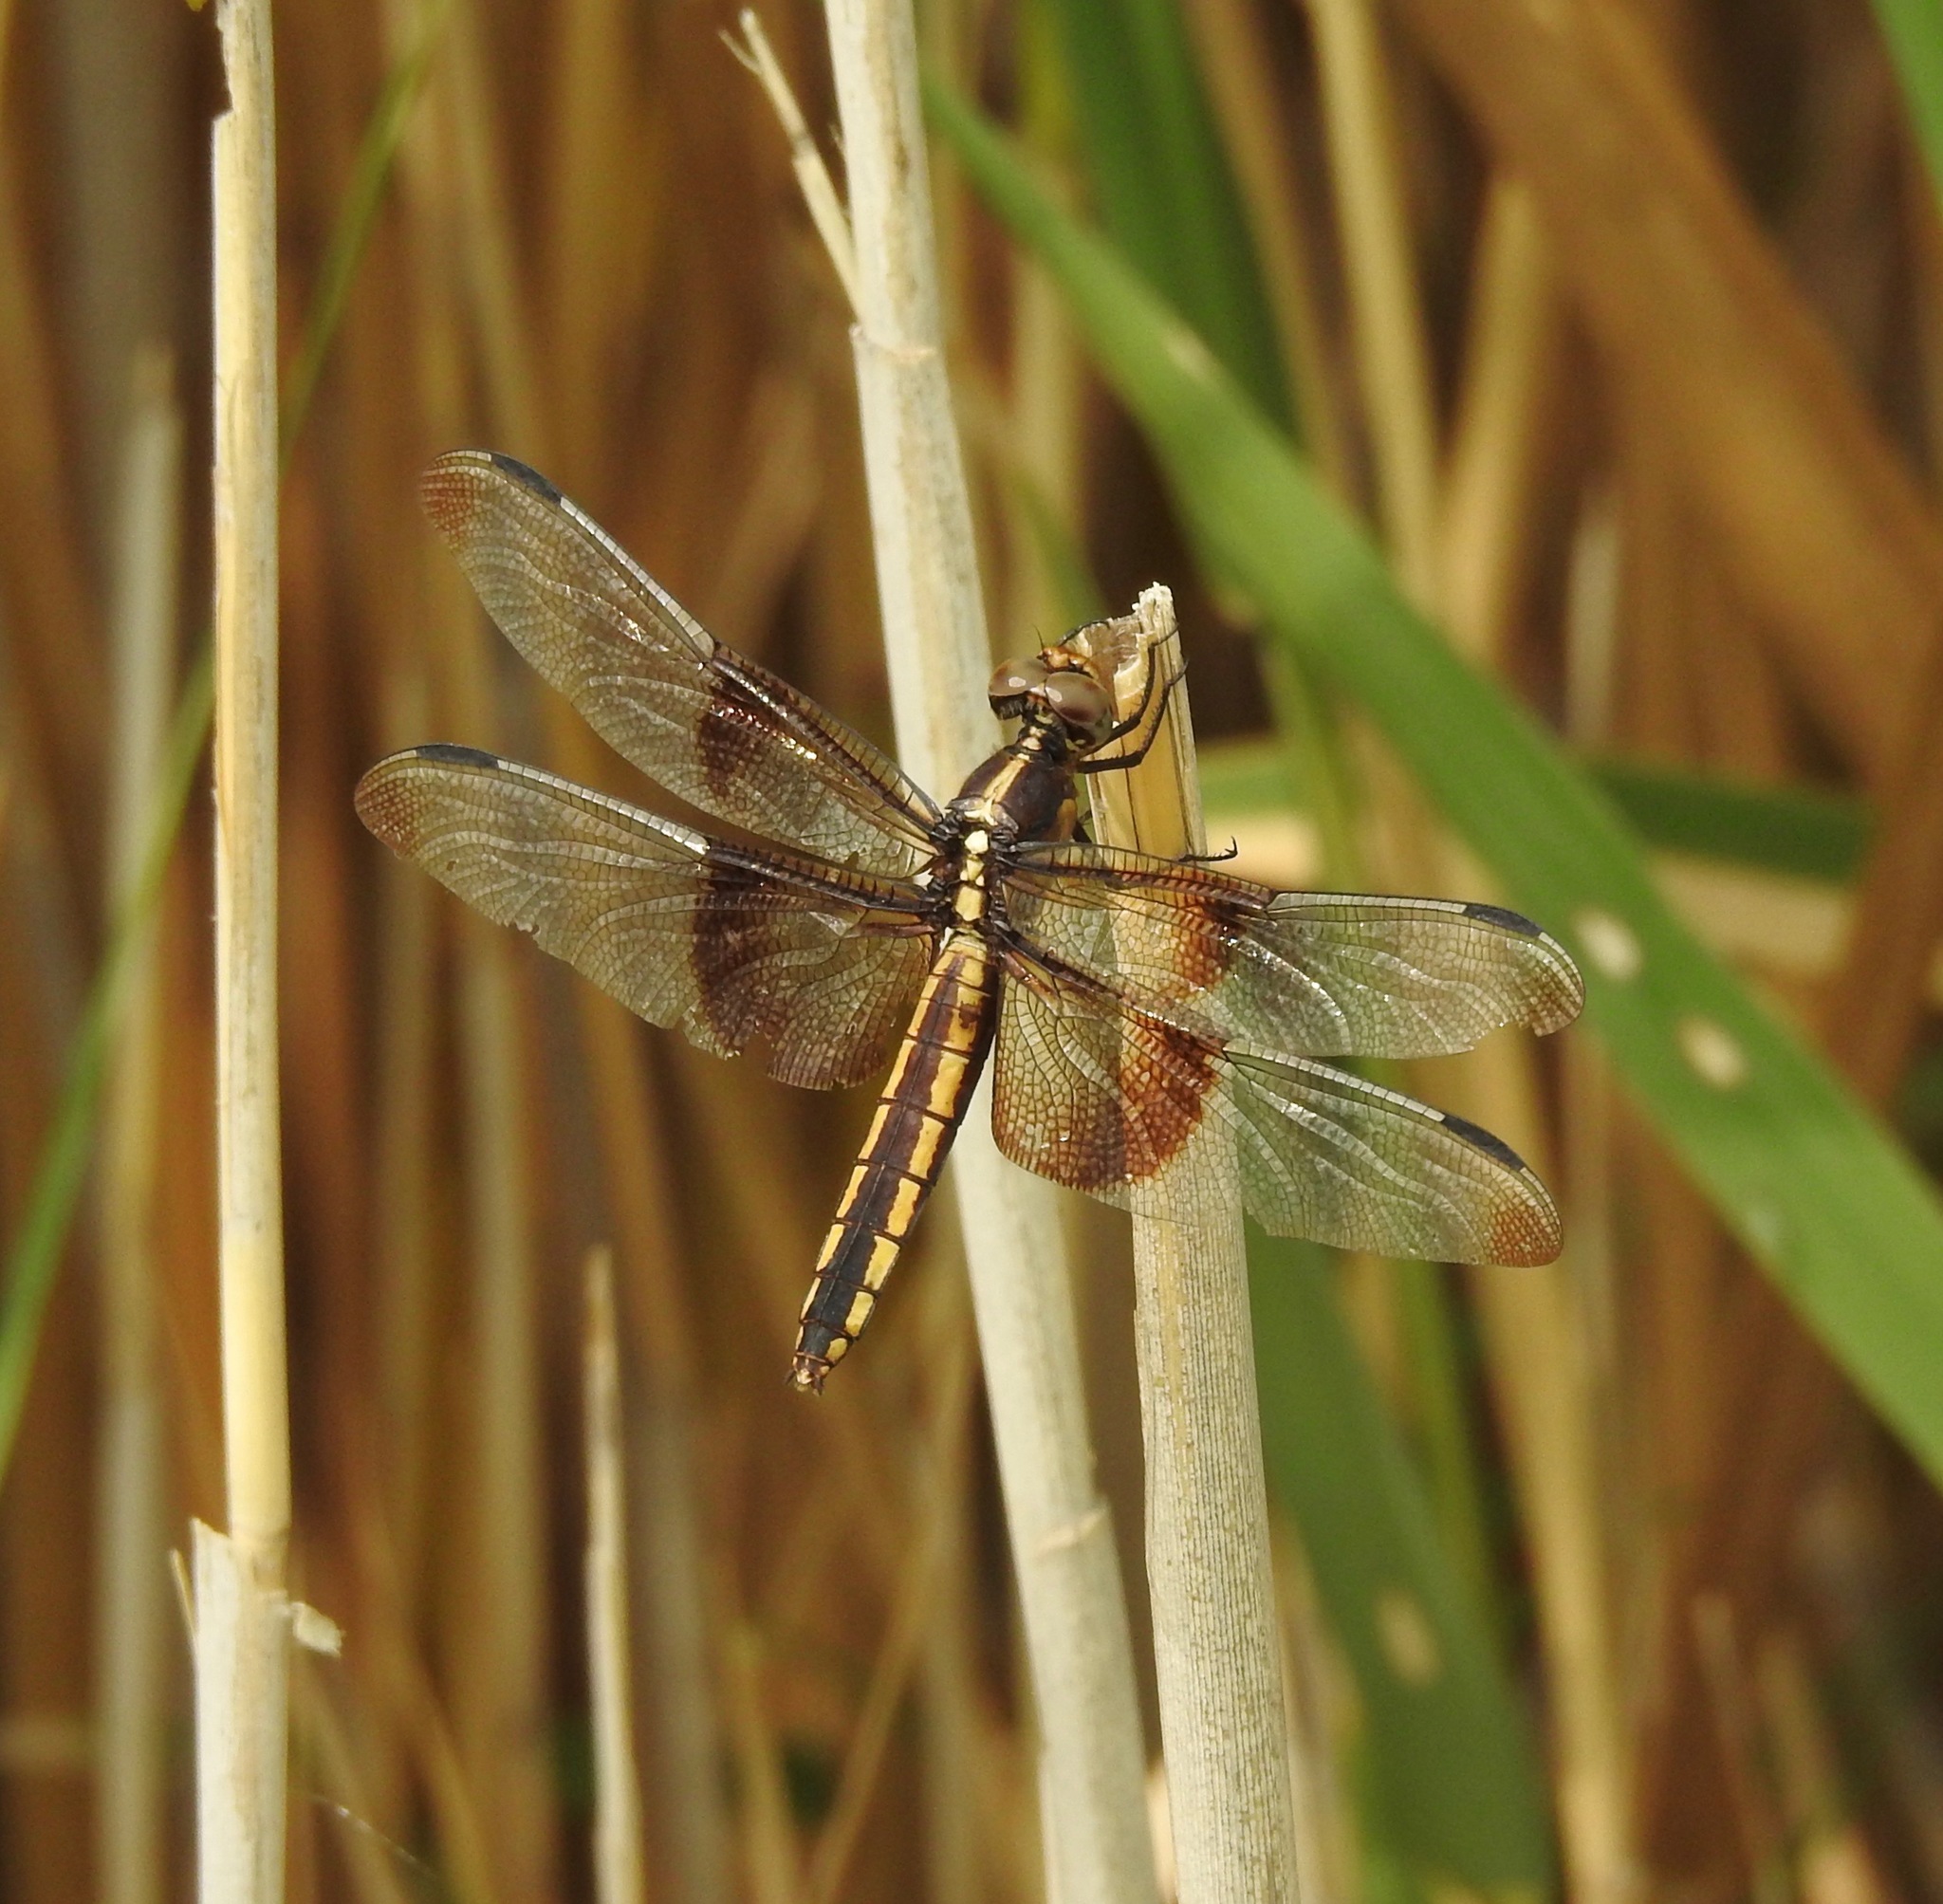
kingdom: Animalia
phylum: Arthropoda
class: Insecta
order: Odonata
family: Libellulidae
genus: Libellula
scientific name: Libellula luctuosa
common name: Widow skimmer
